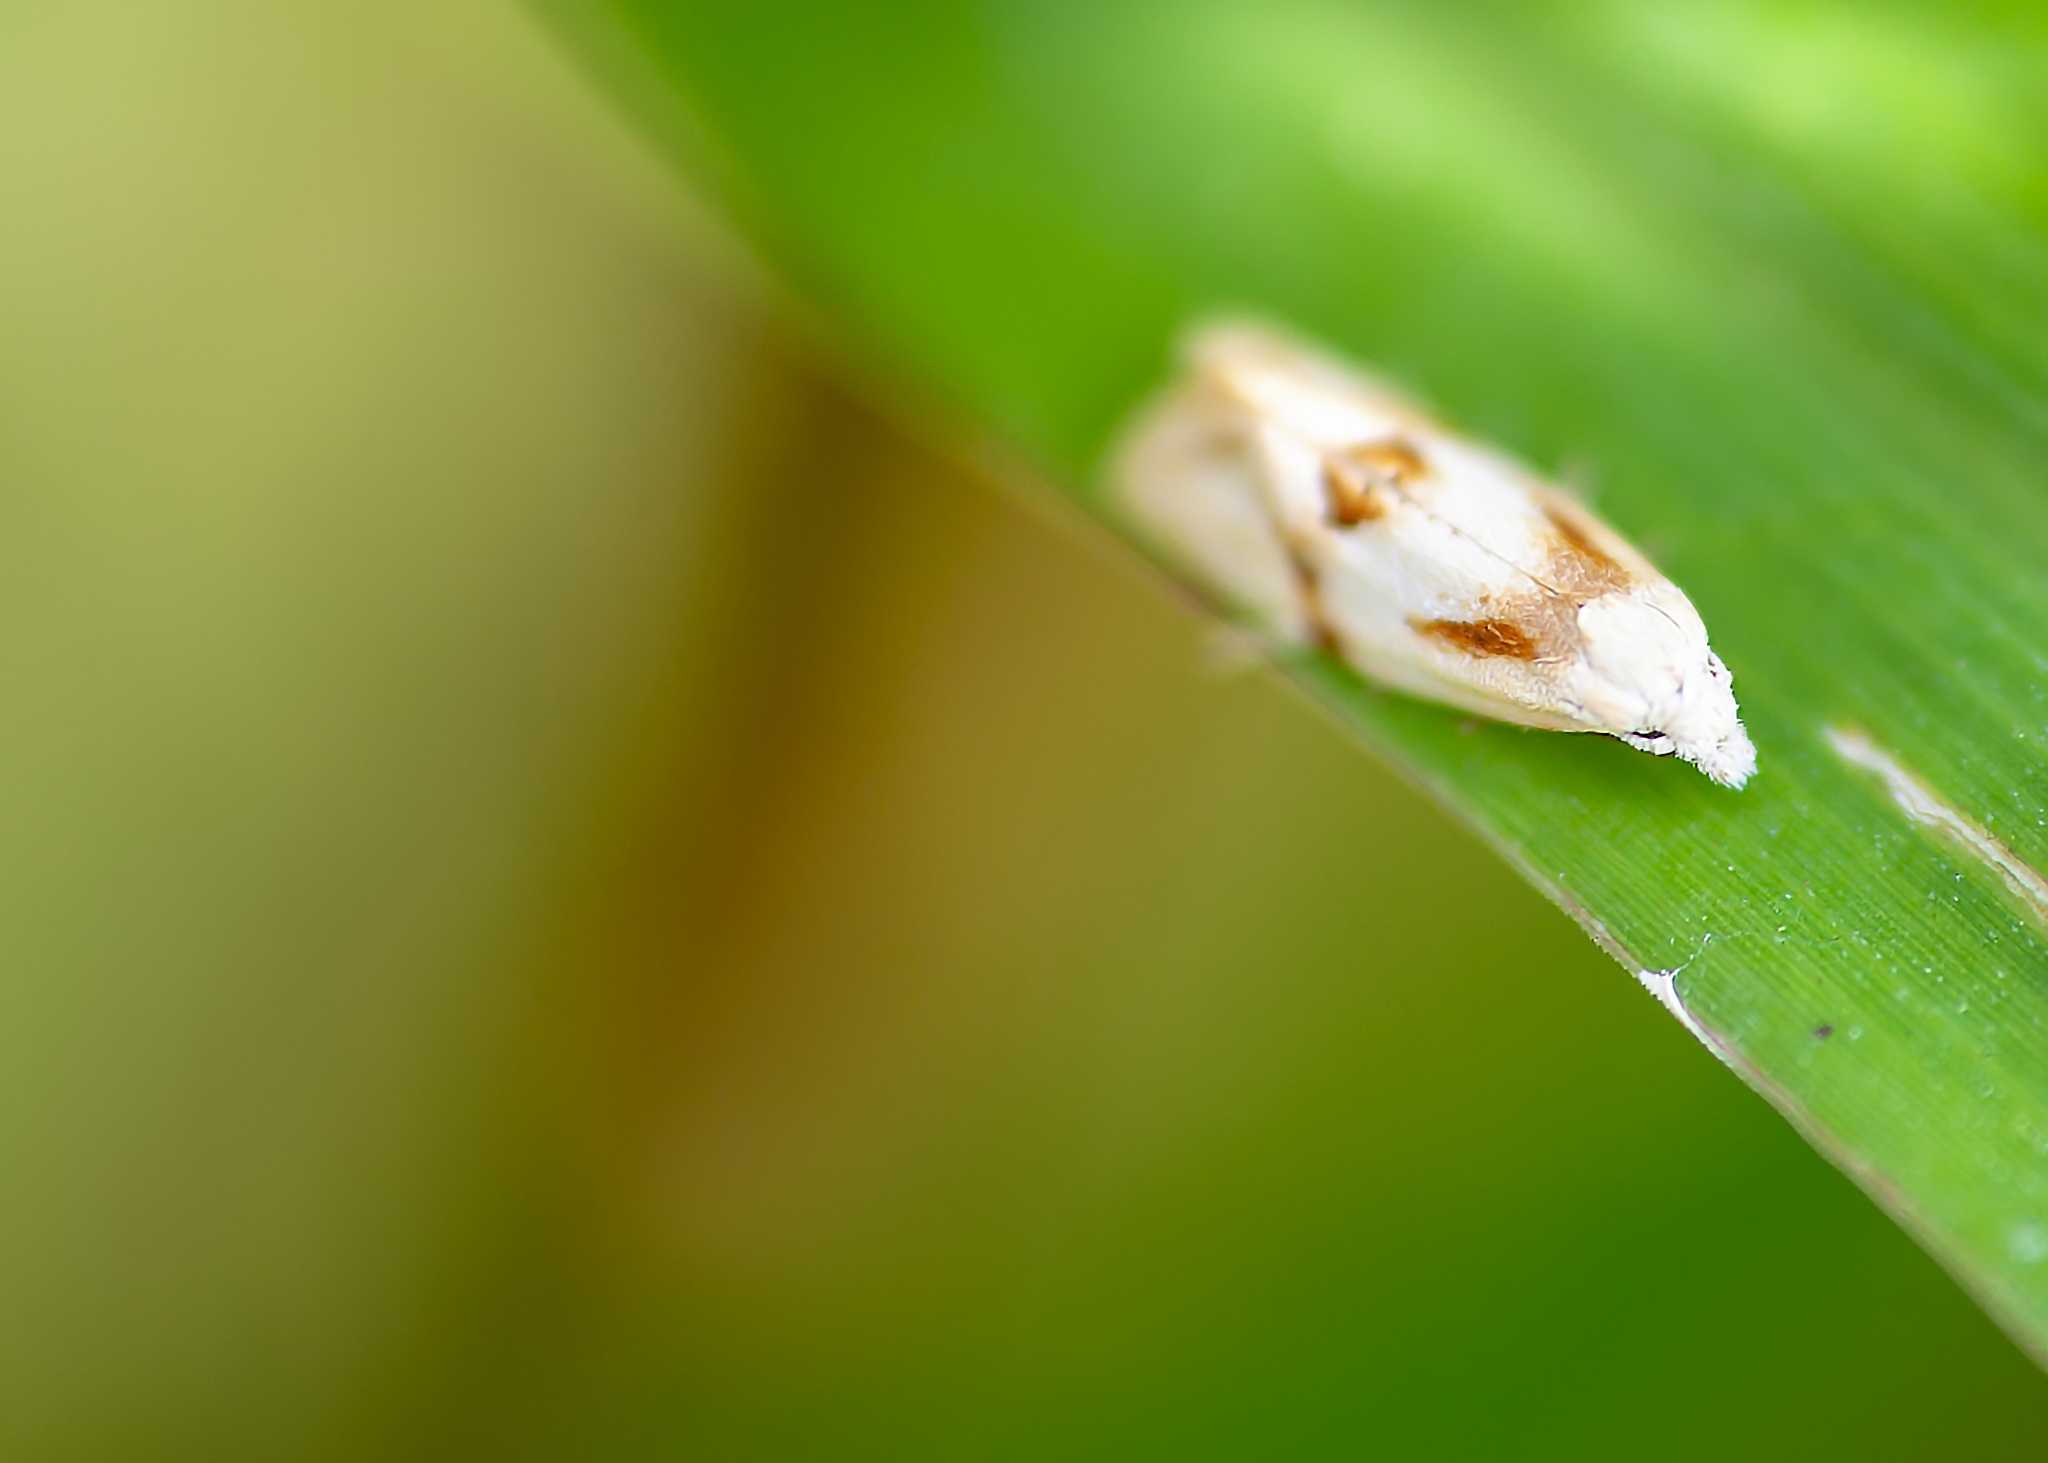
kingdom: Animalia
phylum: Arthropoda
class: Insecta
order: Lepidoptera
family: Tortricidae
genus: Aethes
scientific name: Aethes seriatana
